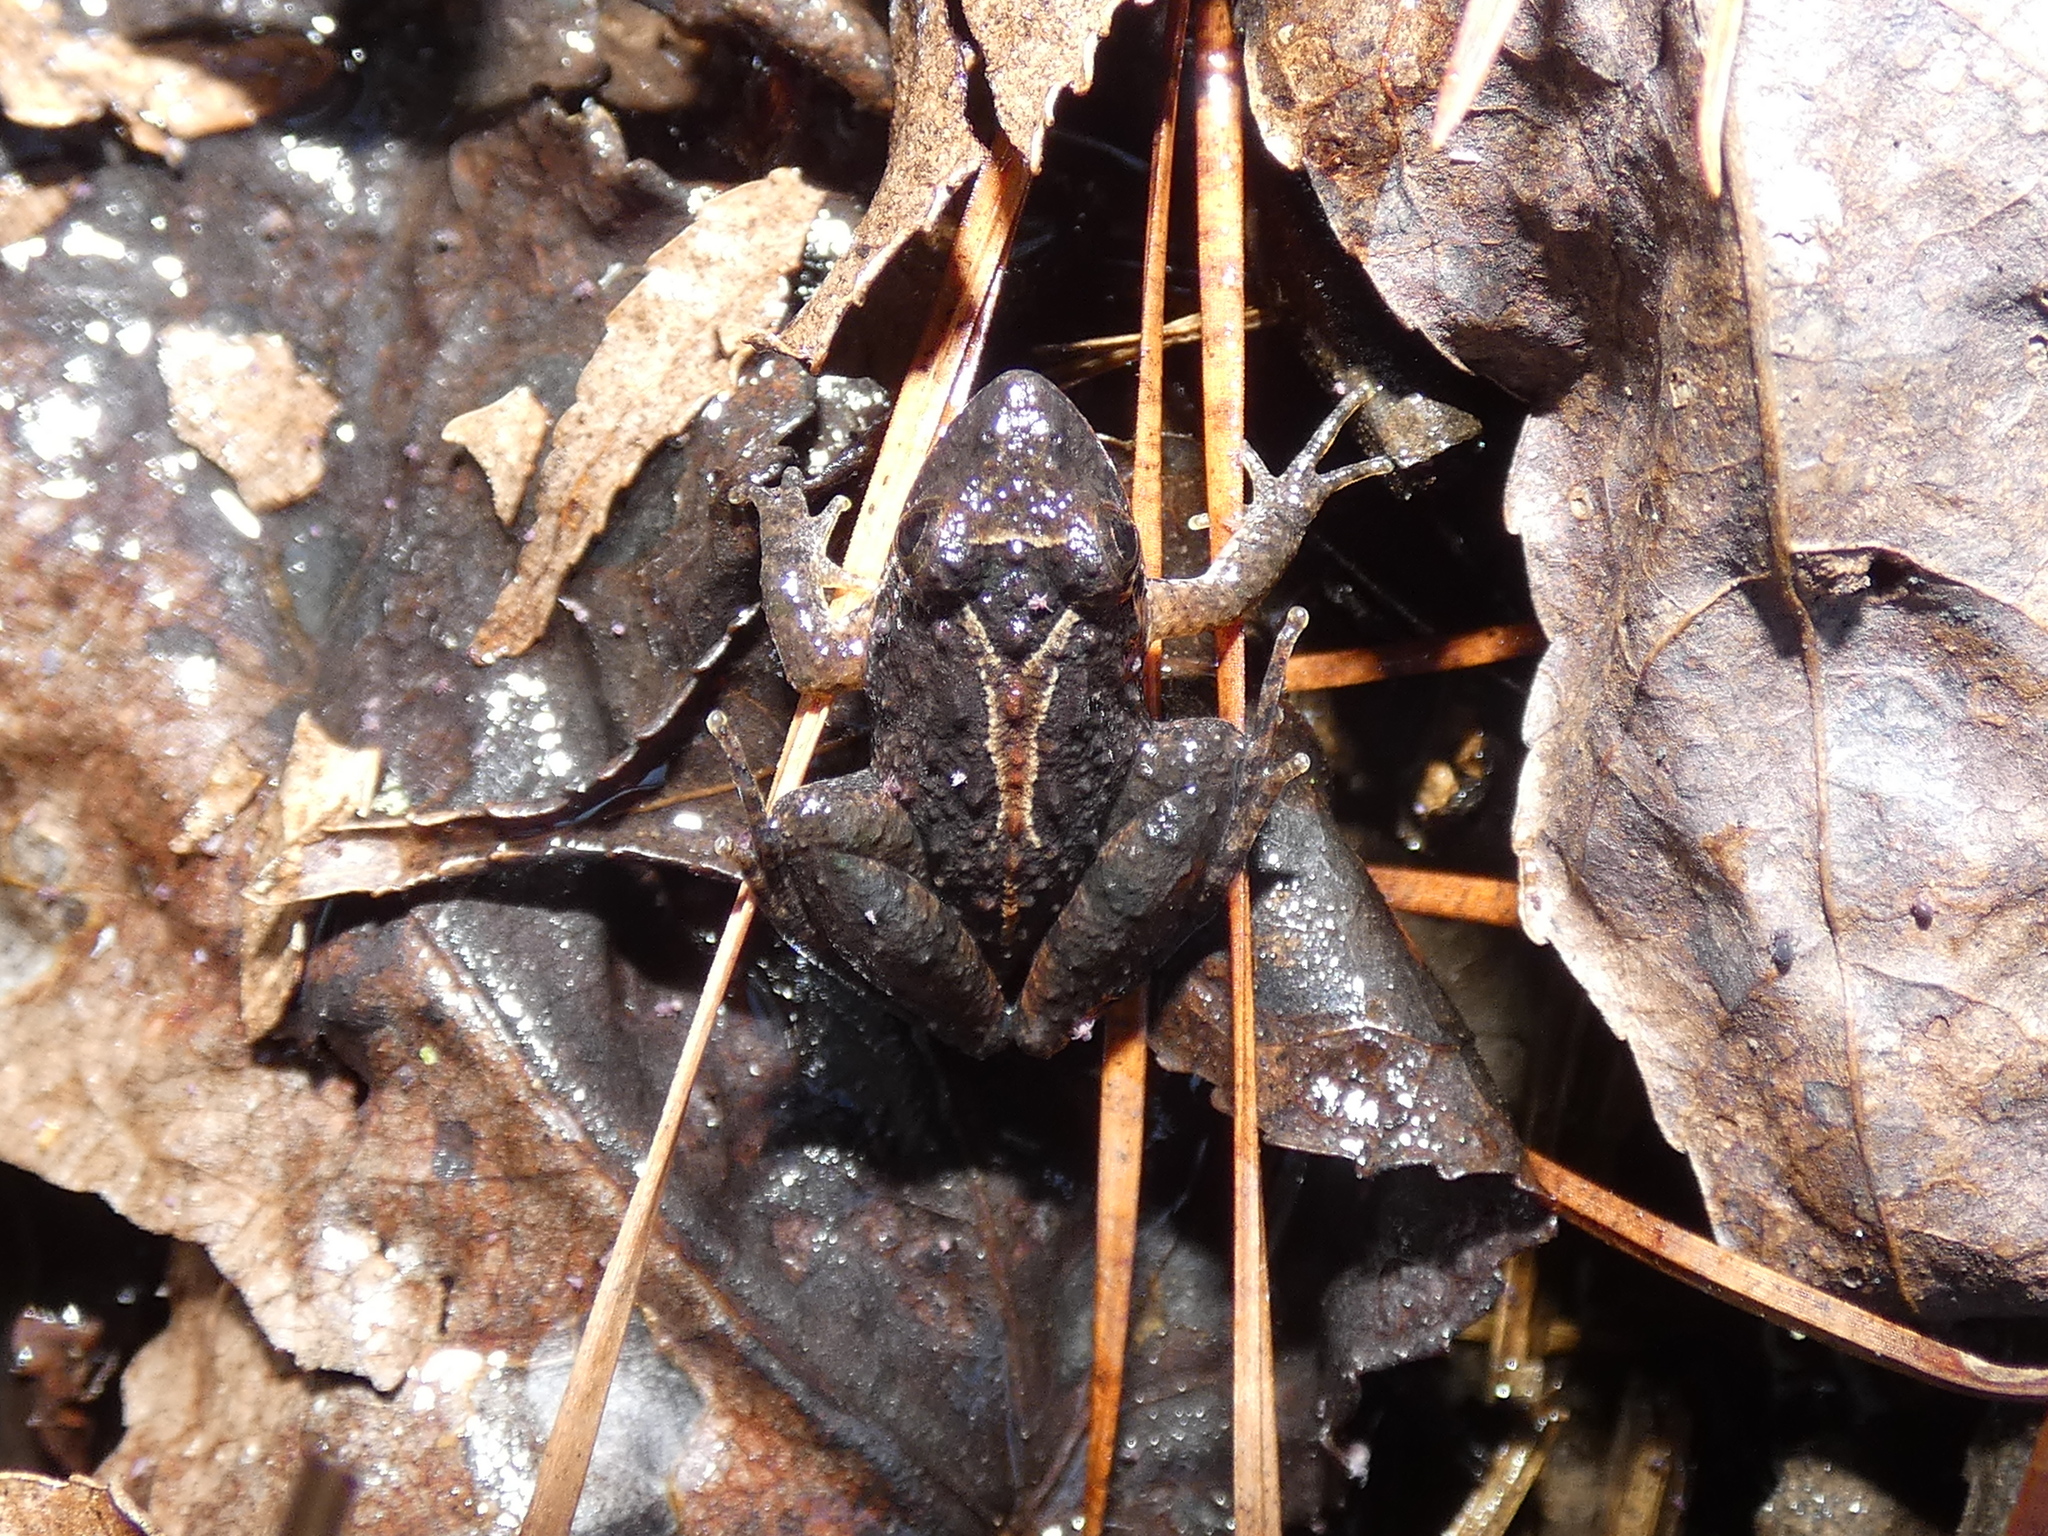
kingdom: Animalia
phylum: Chordata
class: Amphibia
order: Anura
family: Hylidae
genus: Acris
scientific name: Acris gryllus
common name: Southern cricket frog
